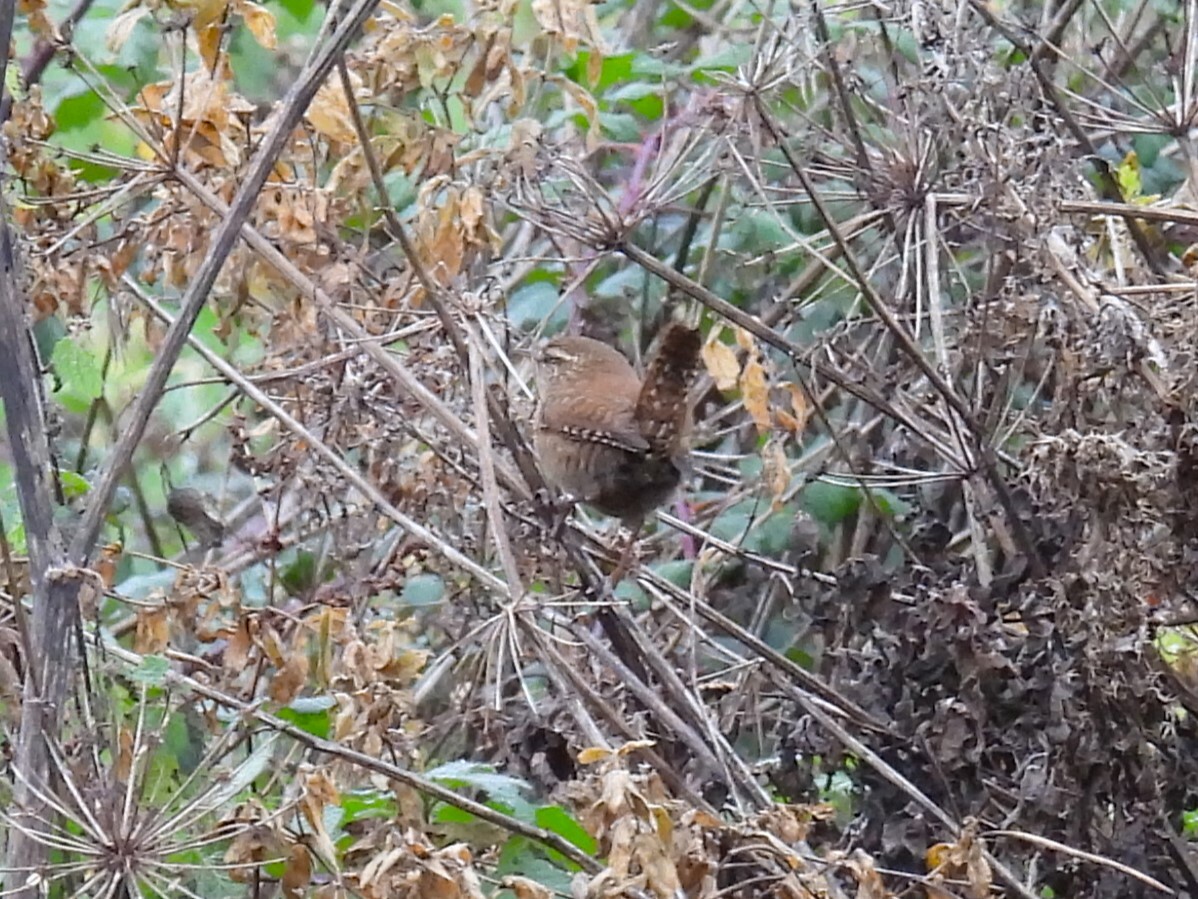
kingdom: Animalia
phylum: Chordata
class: Aves
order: Passeriformes
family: Troglodytidae
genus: Troglodytes
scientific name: Troglodytes troglodytes
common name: Eurasian wren
